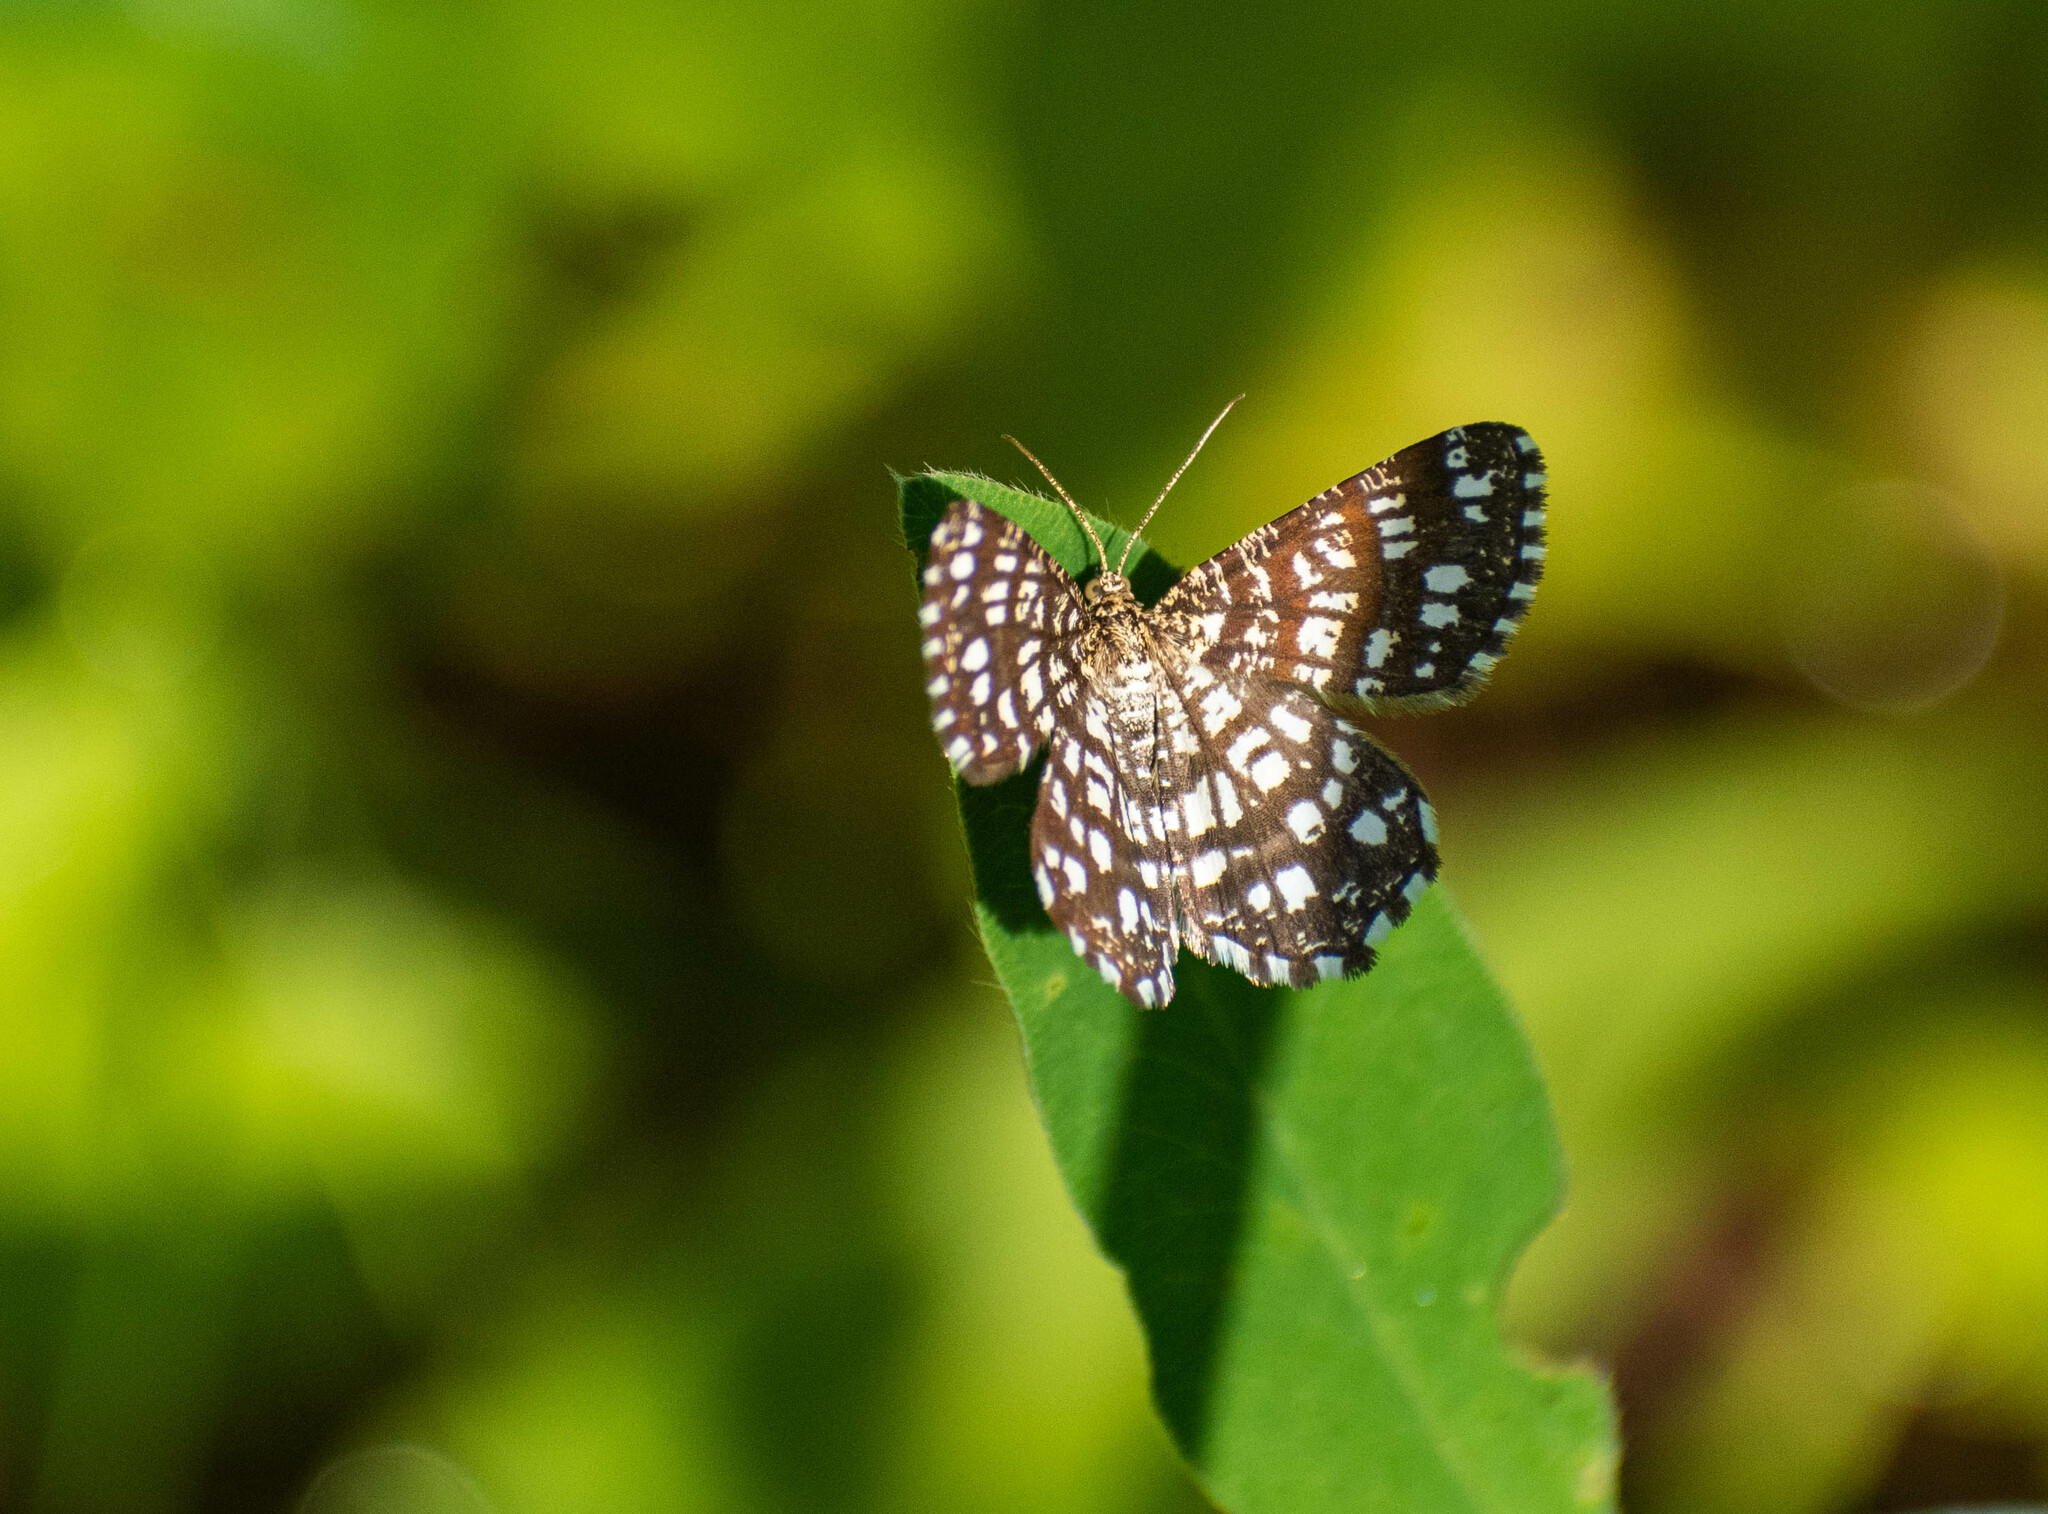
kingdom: Animalia
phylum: Arthropoda
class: Insecta
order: Lepidoptera
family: Geometridae
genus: Chiasmia
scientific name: Chiasmia clathrata
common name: Latticed heath
